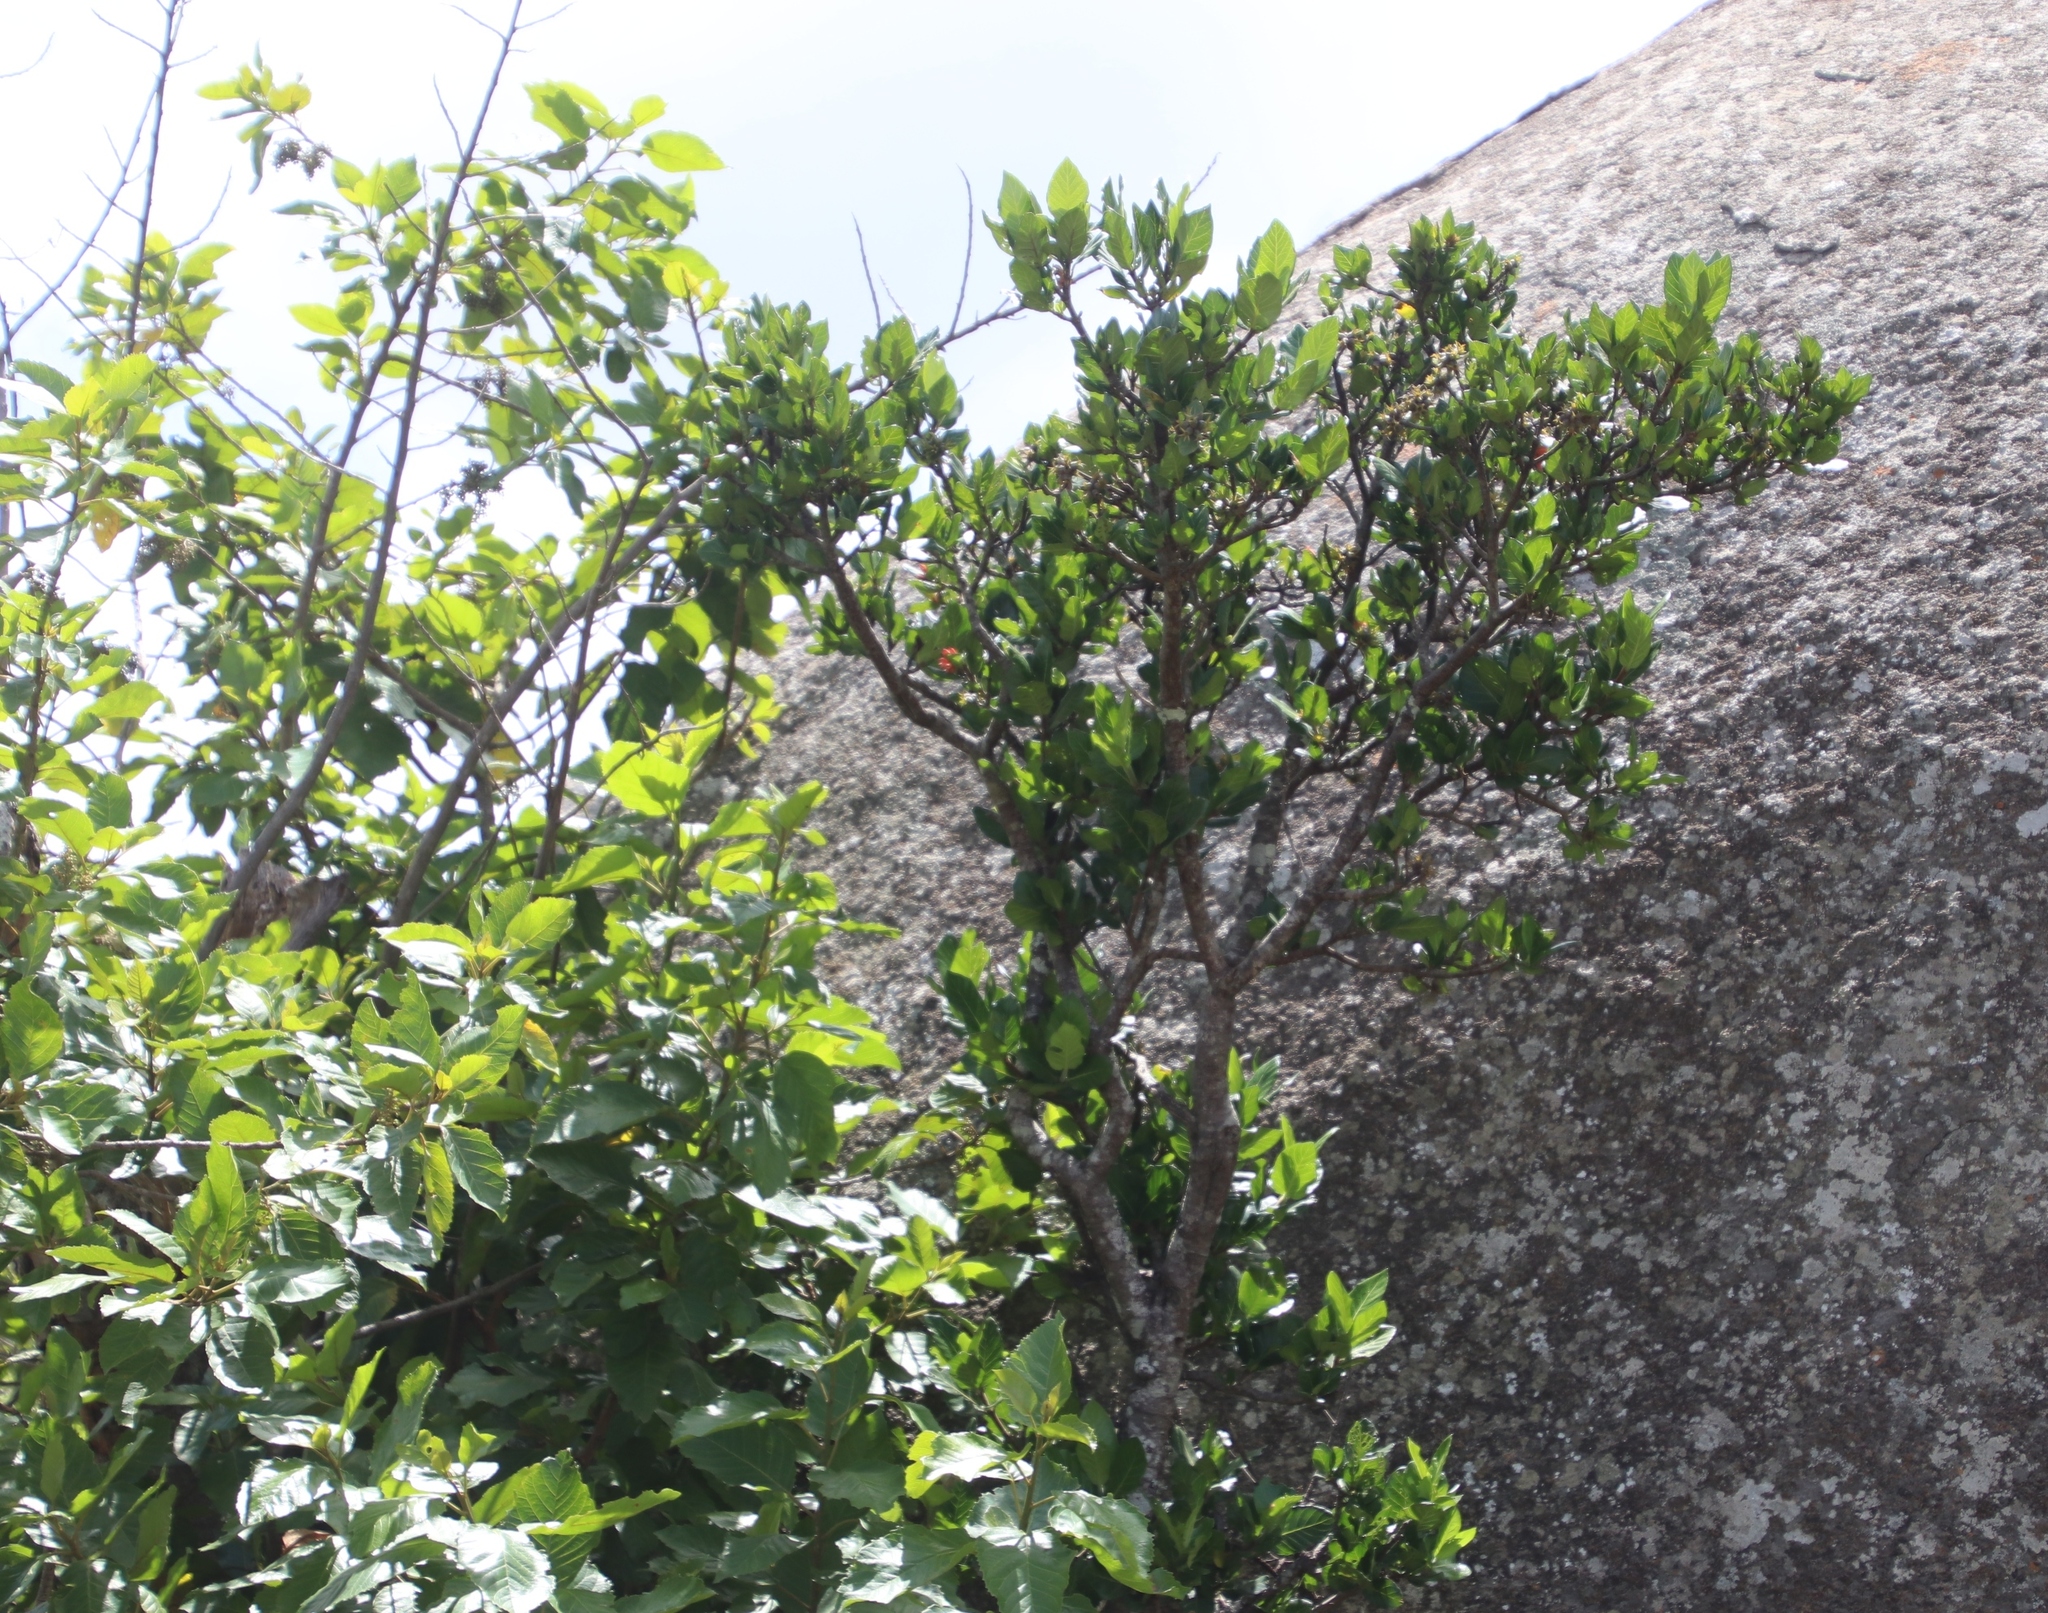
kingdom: Plantae
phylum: Tracheophyta
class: Magnoliopsida
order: Gentianales
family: Rubiaceae
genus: Burchellia
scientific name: Burchellia bubalina
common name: Wild pomegranate
